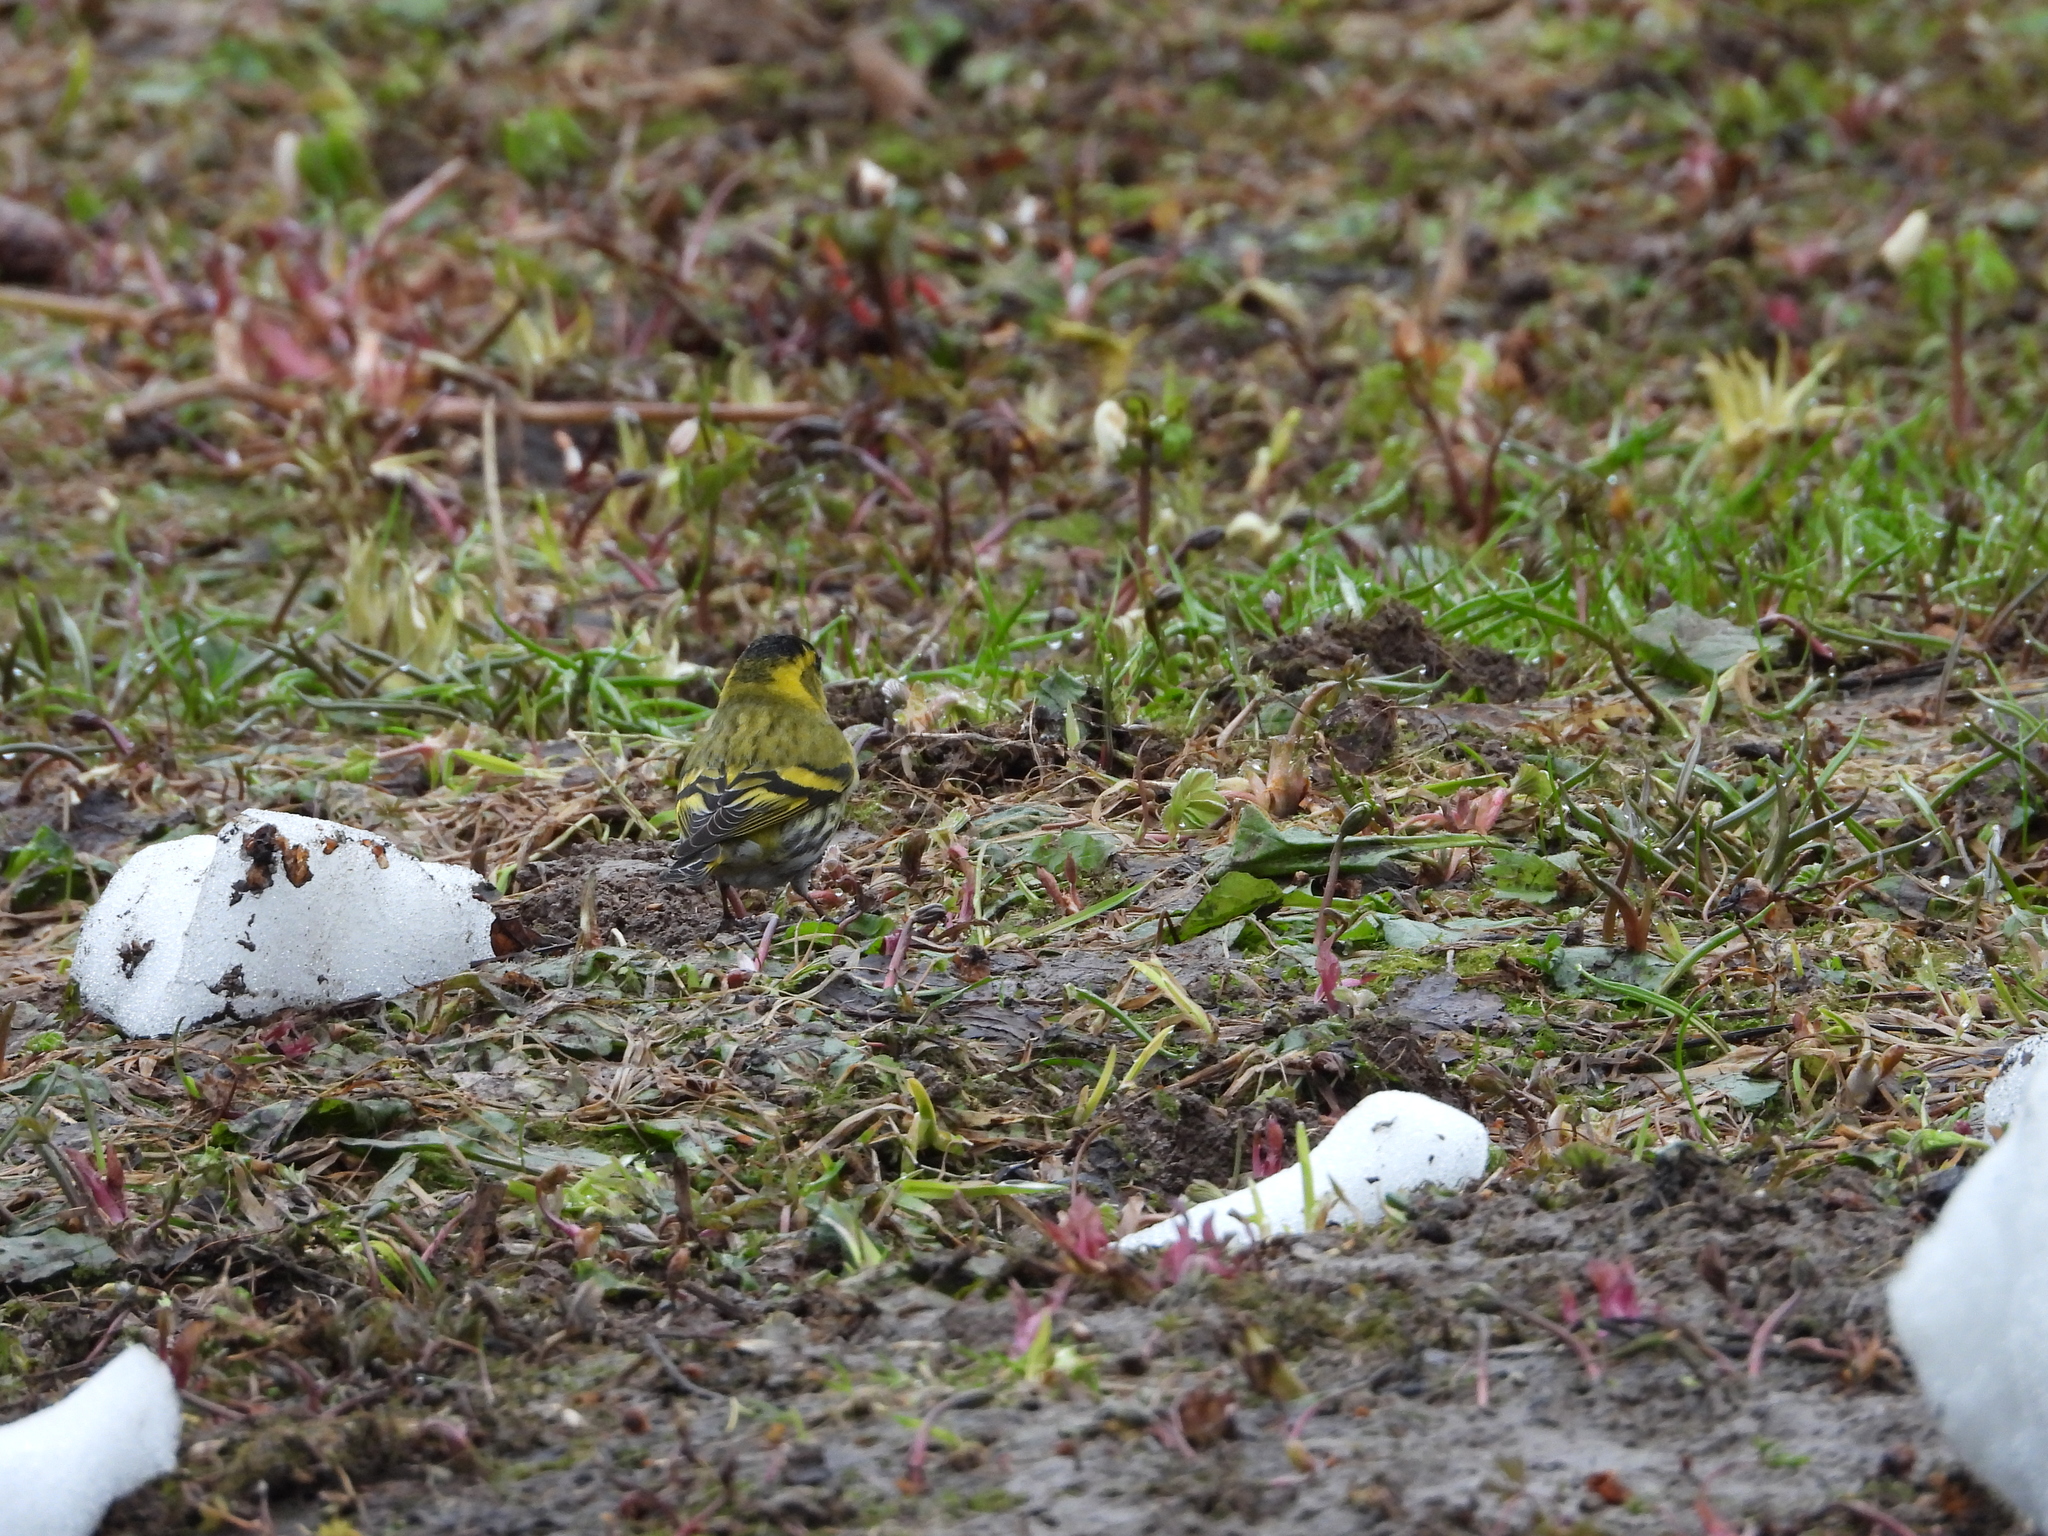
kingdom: Animalia
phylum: Chordata
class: Aves
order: Passeriformes
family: Fringillidae
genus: Spinus
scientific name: Spinus spinus
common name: Eurasian siskin
